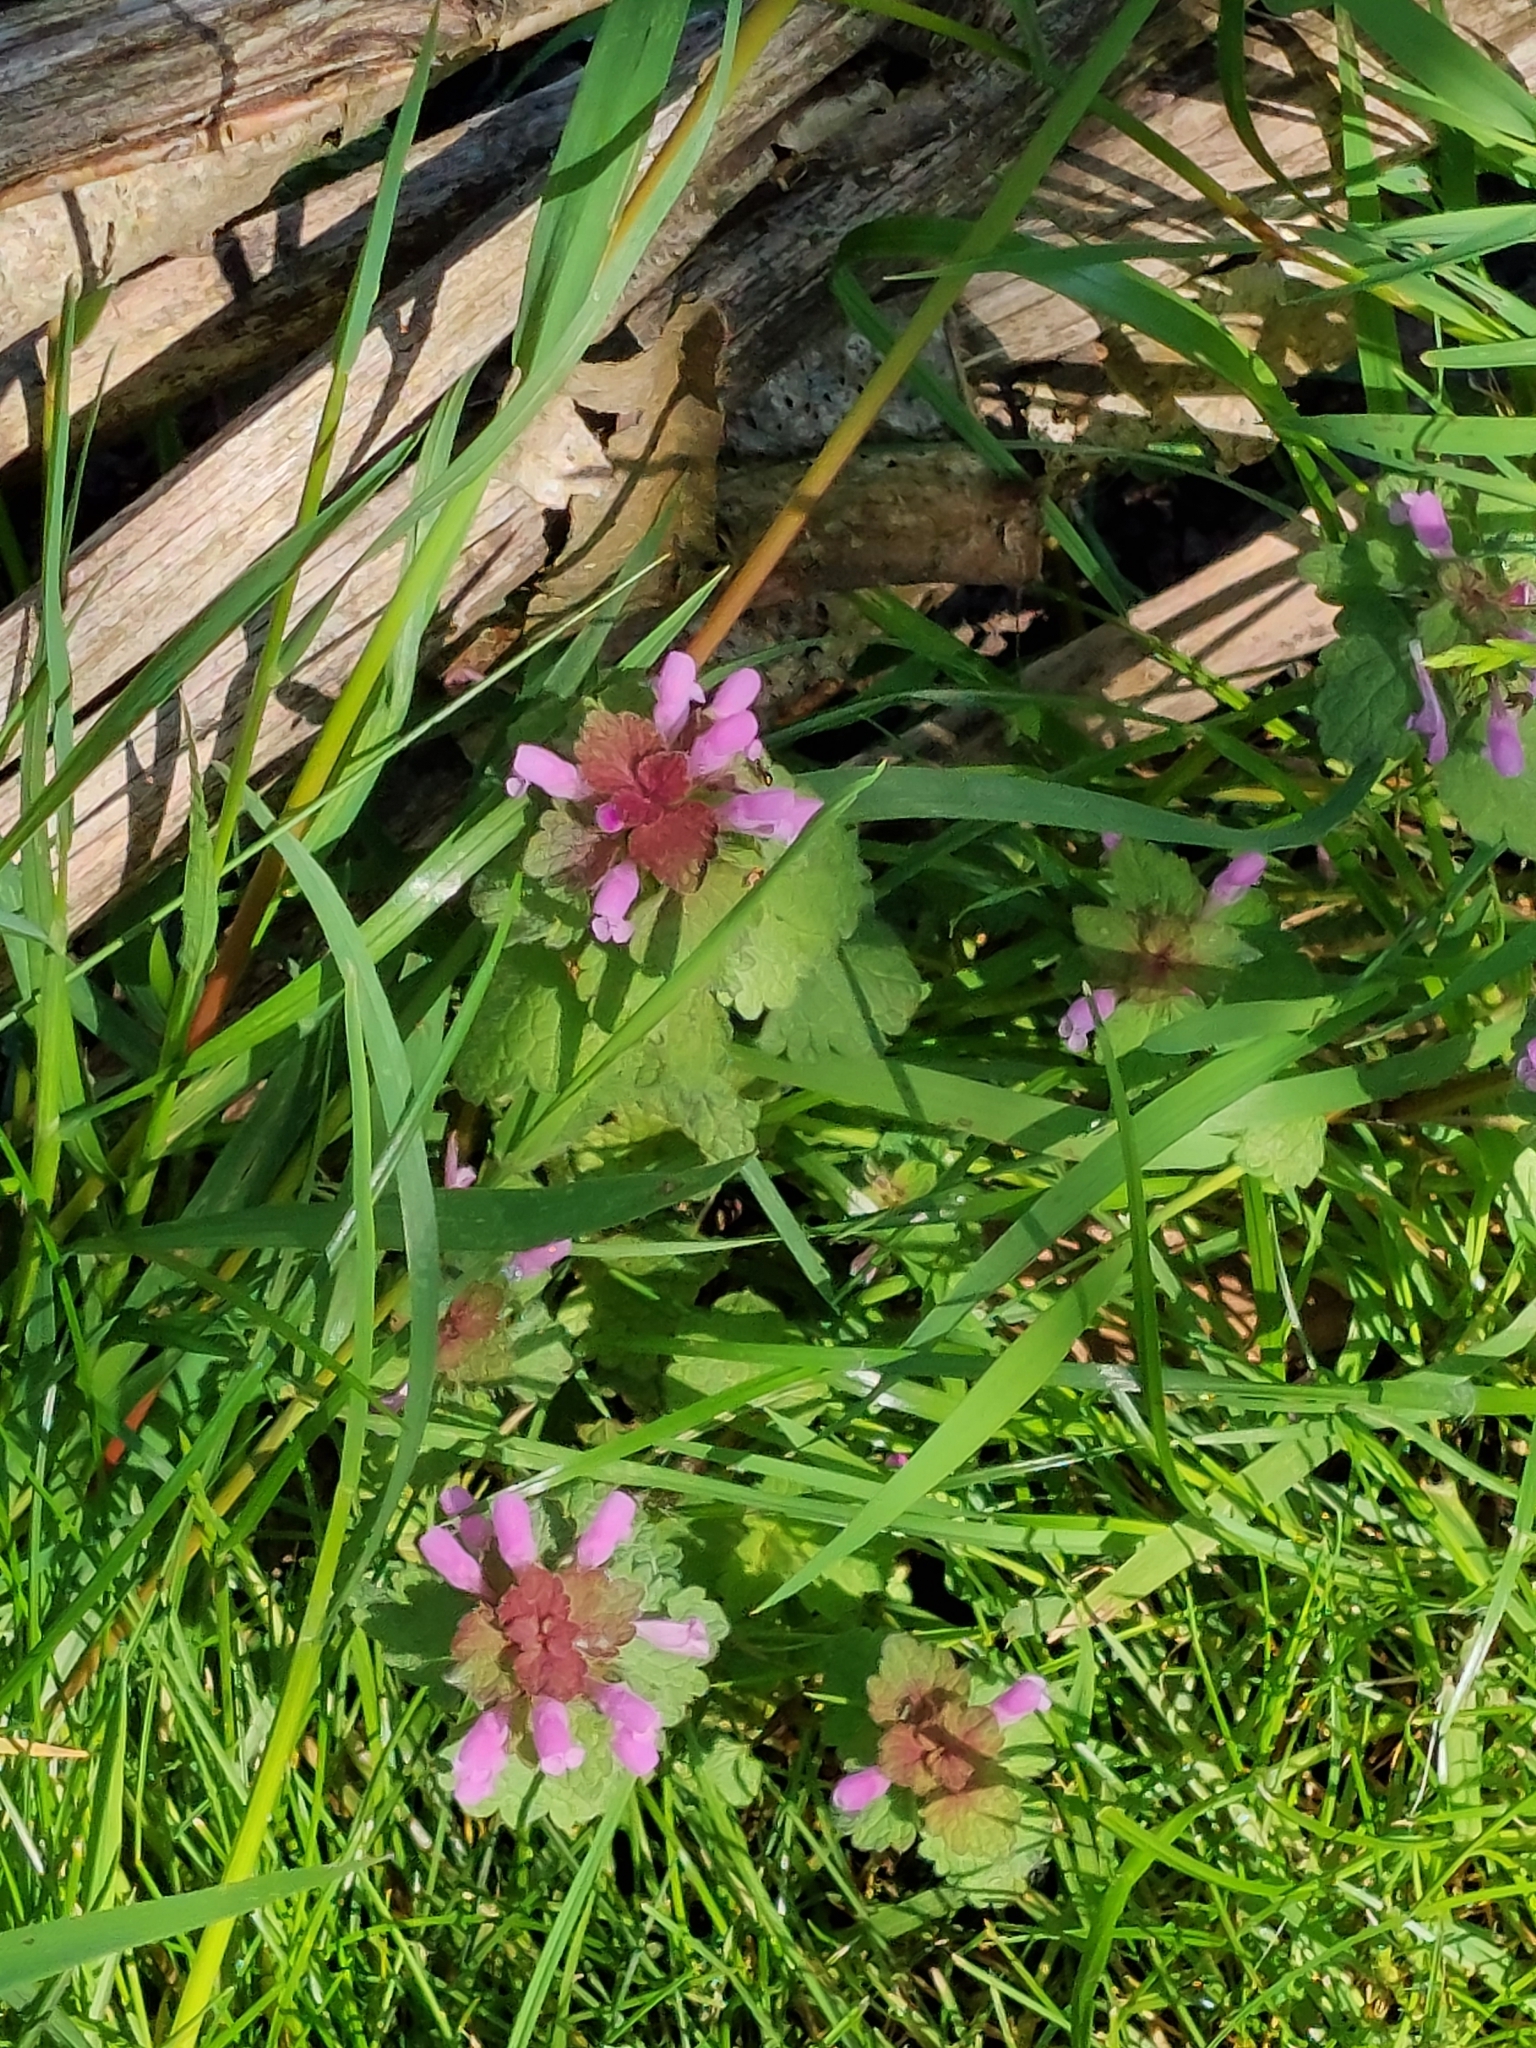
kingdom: Plantae
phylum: Tracheophyta
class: Magnoliopsida
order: Lamiales
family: Lamiaceae
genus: Lamium
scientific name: Lamium purpureum
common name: Red dead-nettle
